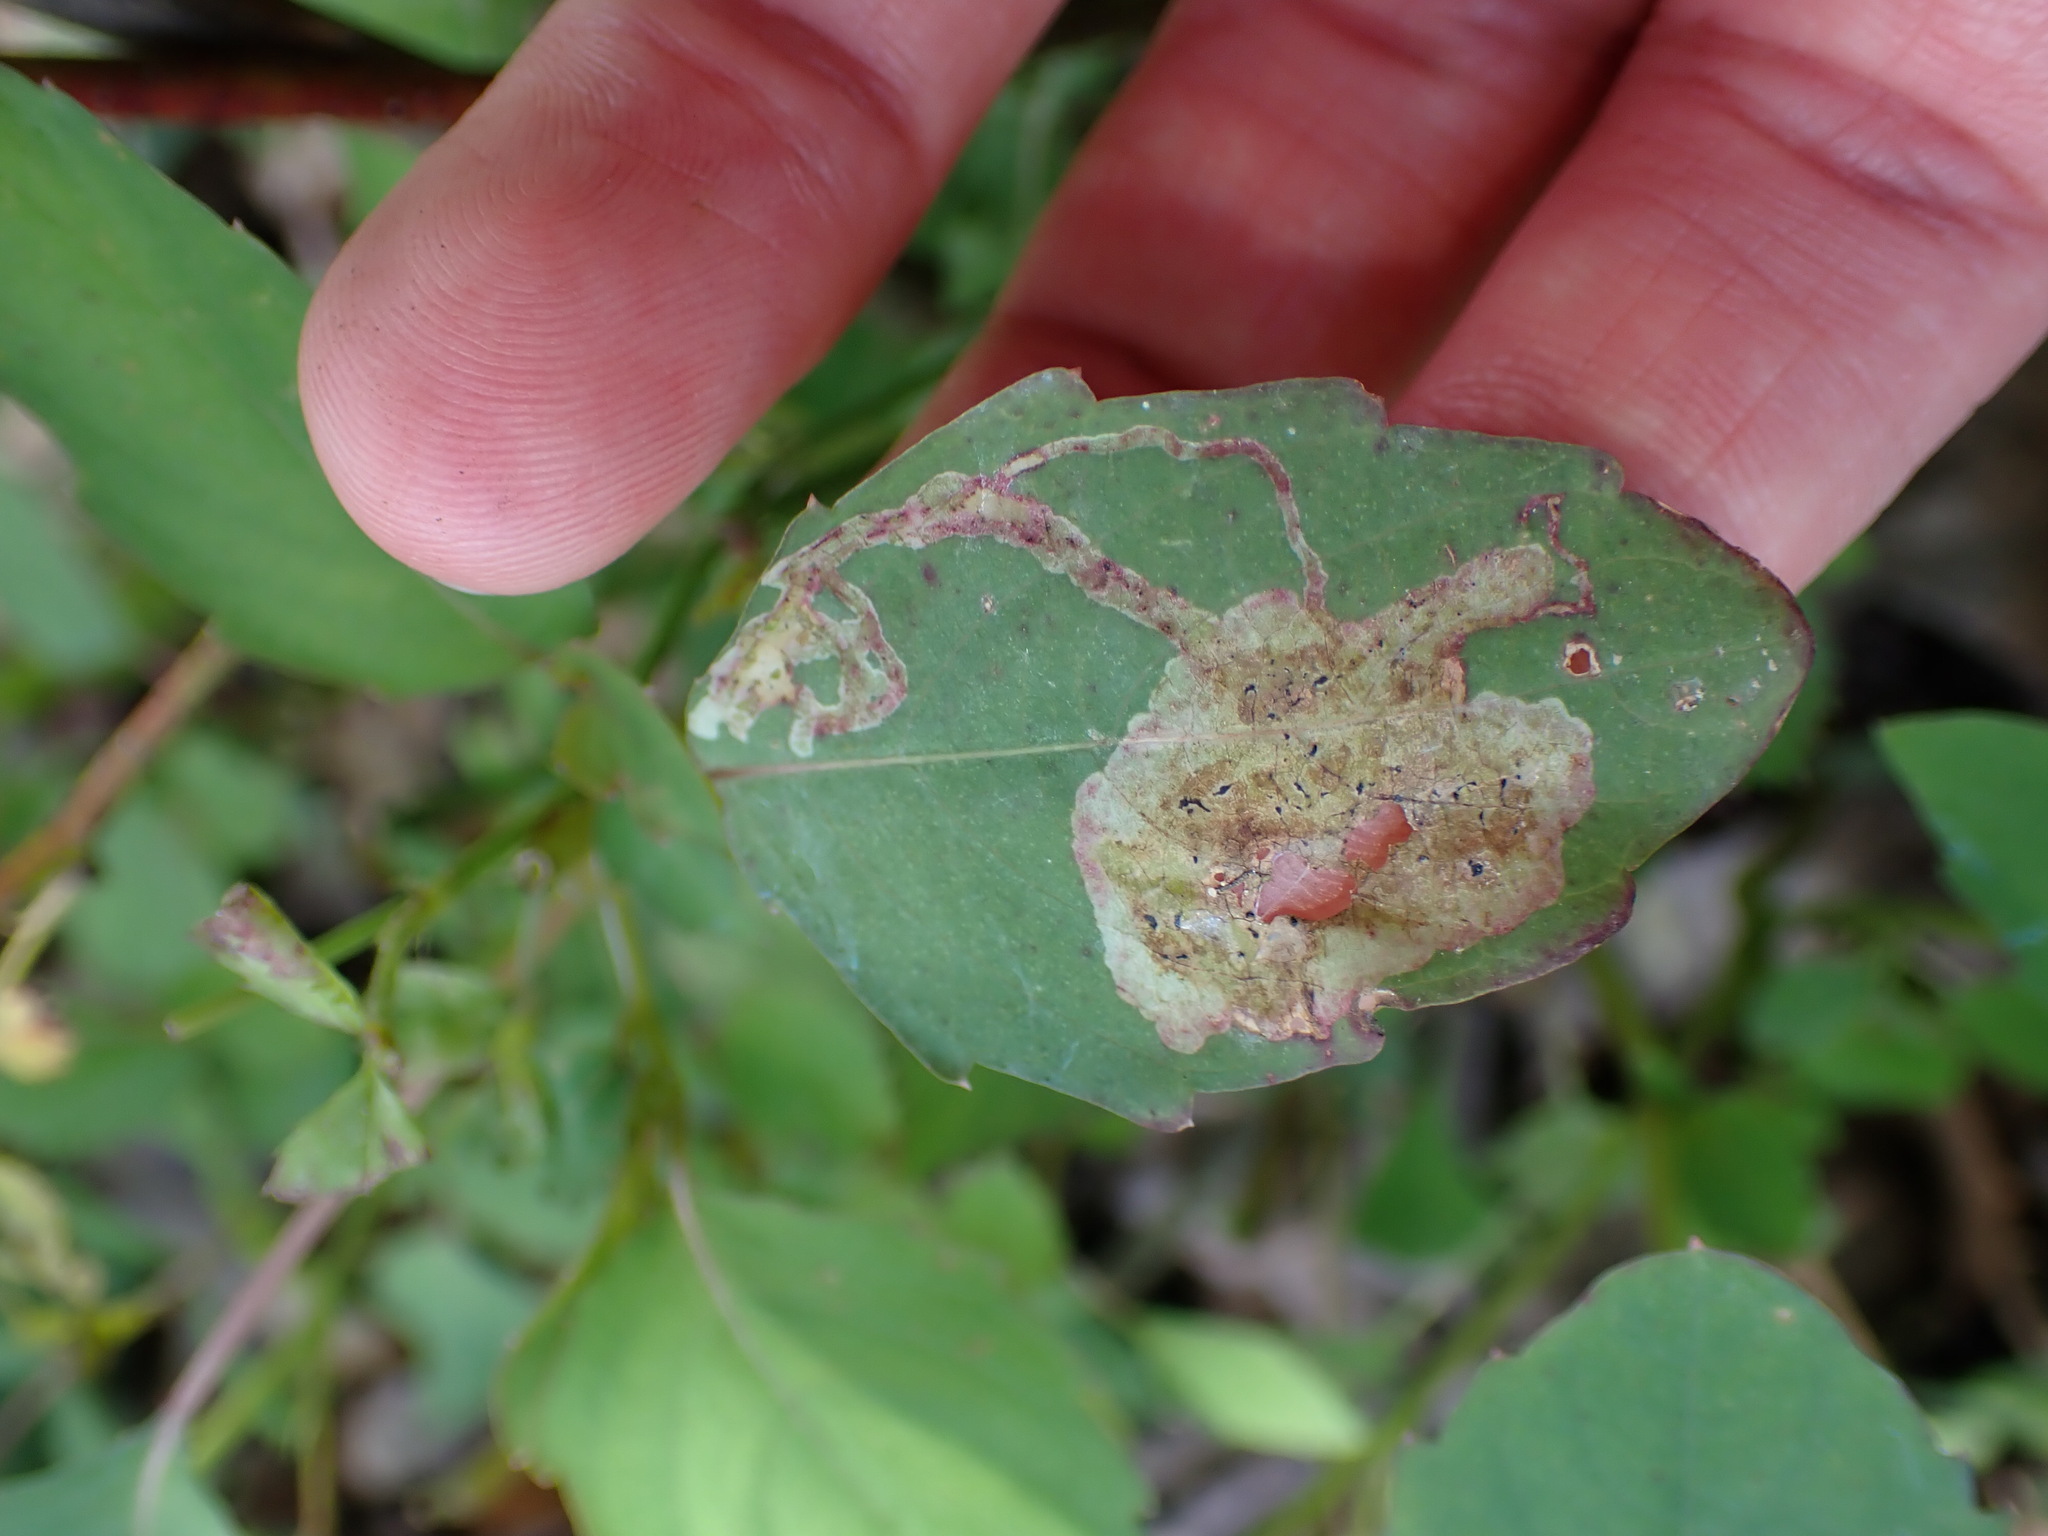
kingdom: Animalia
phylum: Arthropoda
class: Insecta
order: Diptera
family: Agromyzidae
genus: Phytoliriomyza
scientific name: Phytoliriomyza melampyga
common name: Jewelweed leaf-miner fly
